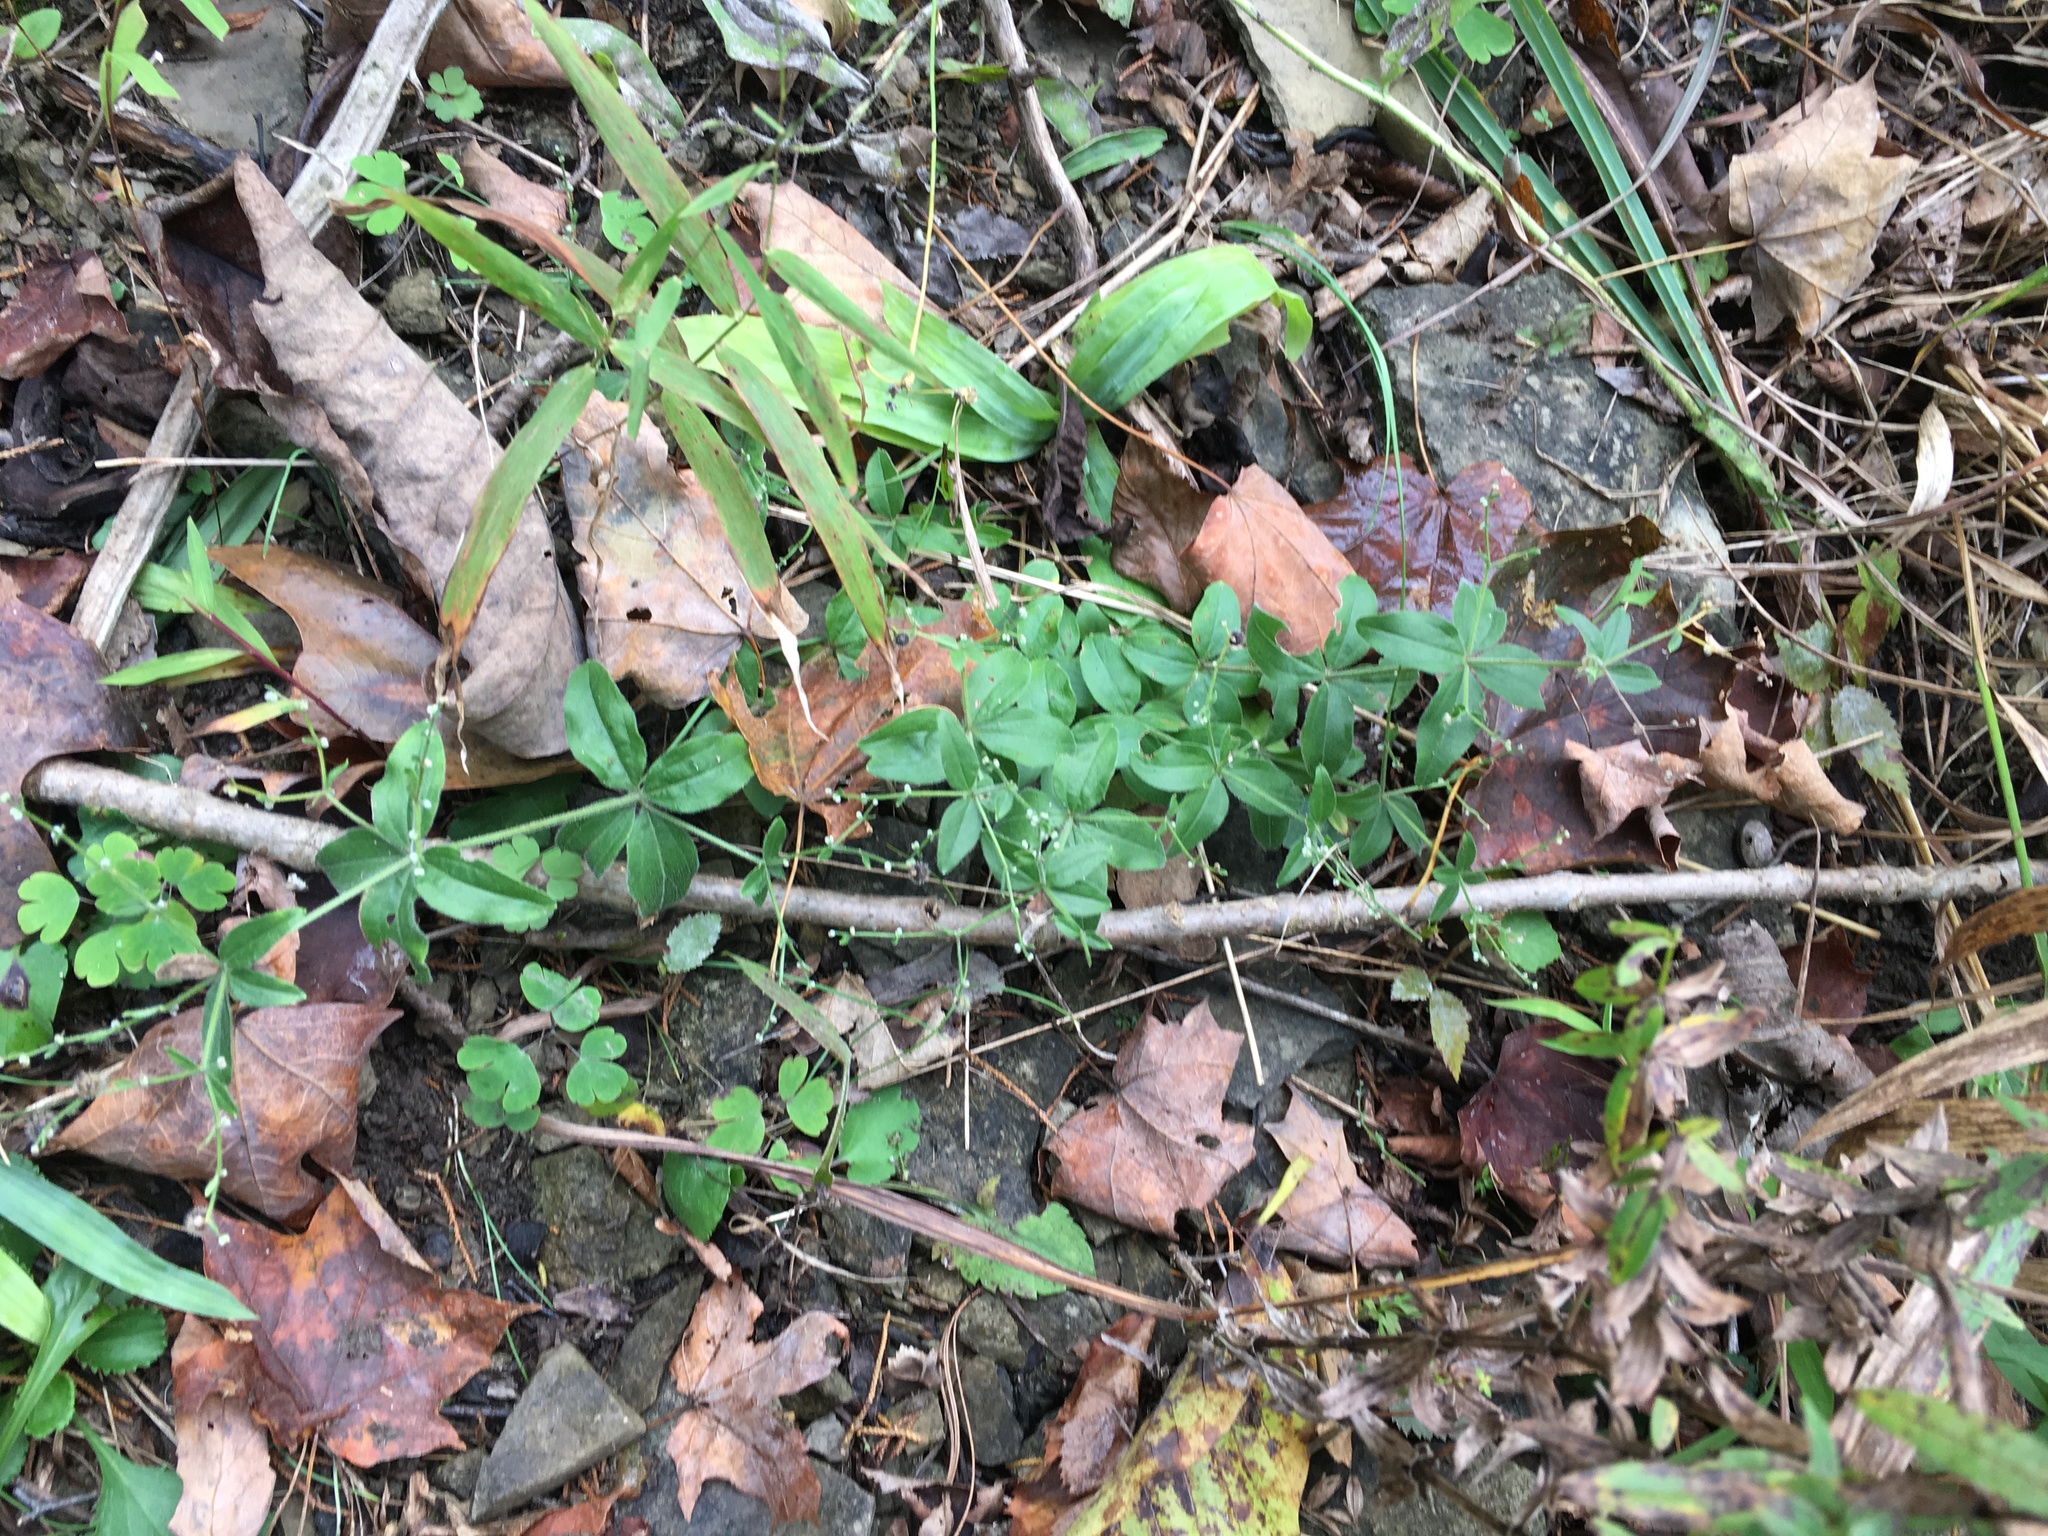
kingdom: Plantae
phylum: Tracheophyta
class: Magnoliopsida
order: Gentianales
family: Rubiaceae
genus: Galium
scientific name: Galium circaezans
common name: Forest bedstraw
